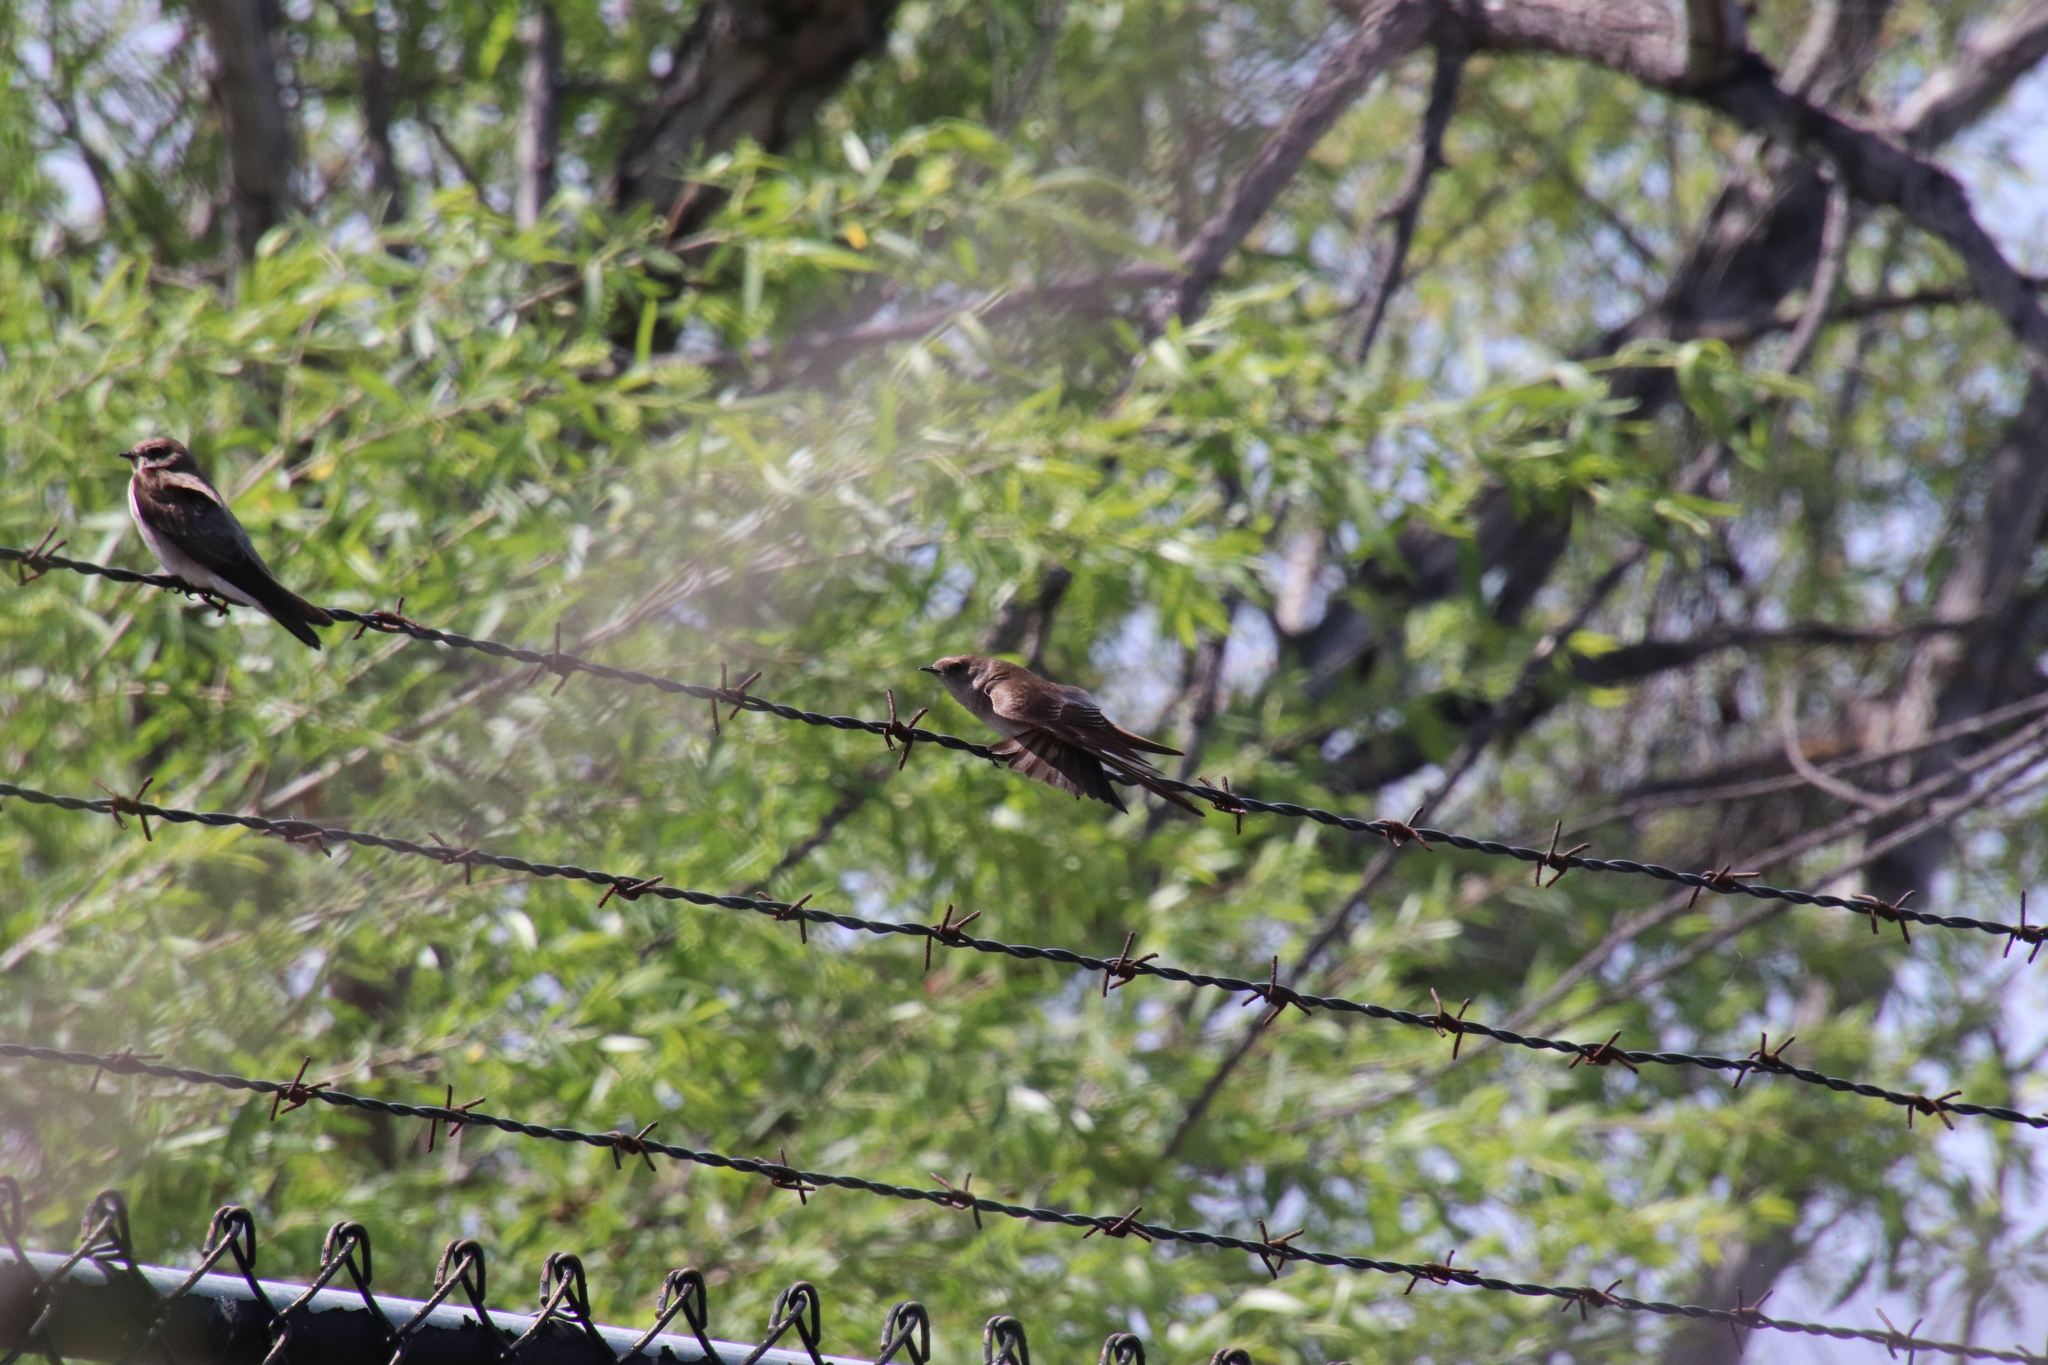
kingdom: Animalia
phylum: Chordata
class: Aves
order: Passeriformes
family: Hirundinidae
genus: Stelgidopteryx
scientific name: Stelgidopteryx serripennis
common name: Northern rough-winged swallow
